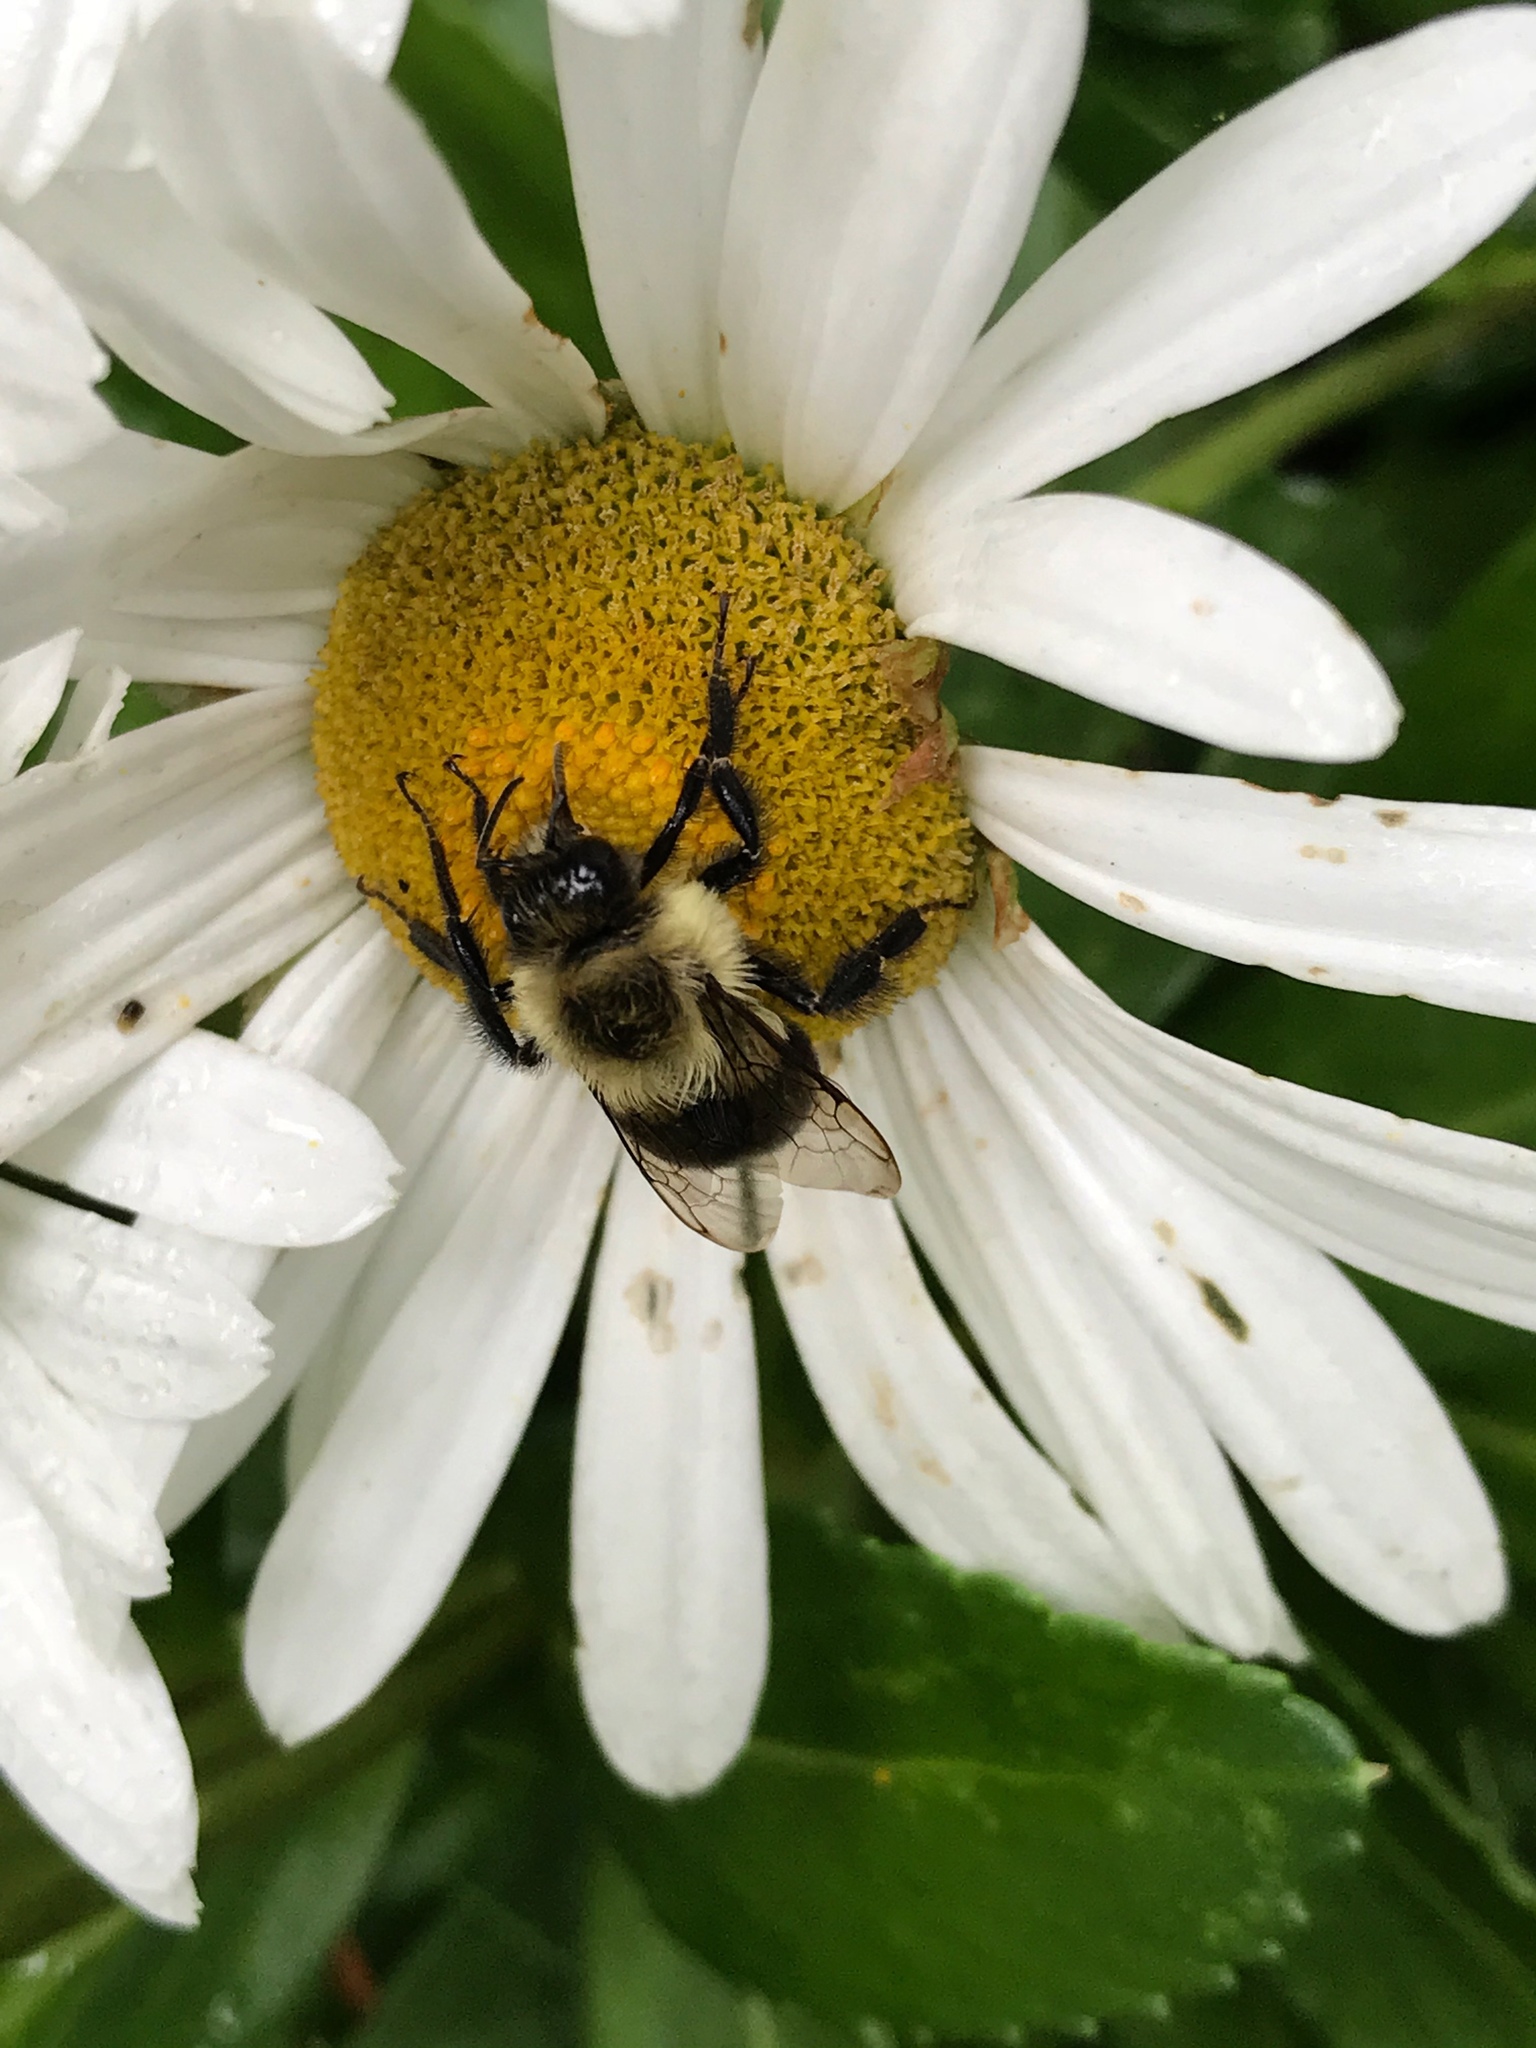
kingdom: Animalia
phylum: Arthropoda
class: Insecta
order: Hymenoptera
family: Apidae
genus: Bombus
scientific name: Bombus impatiens
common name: Common eastern bumble bee
